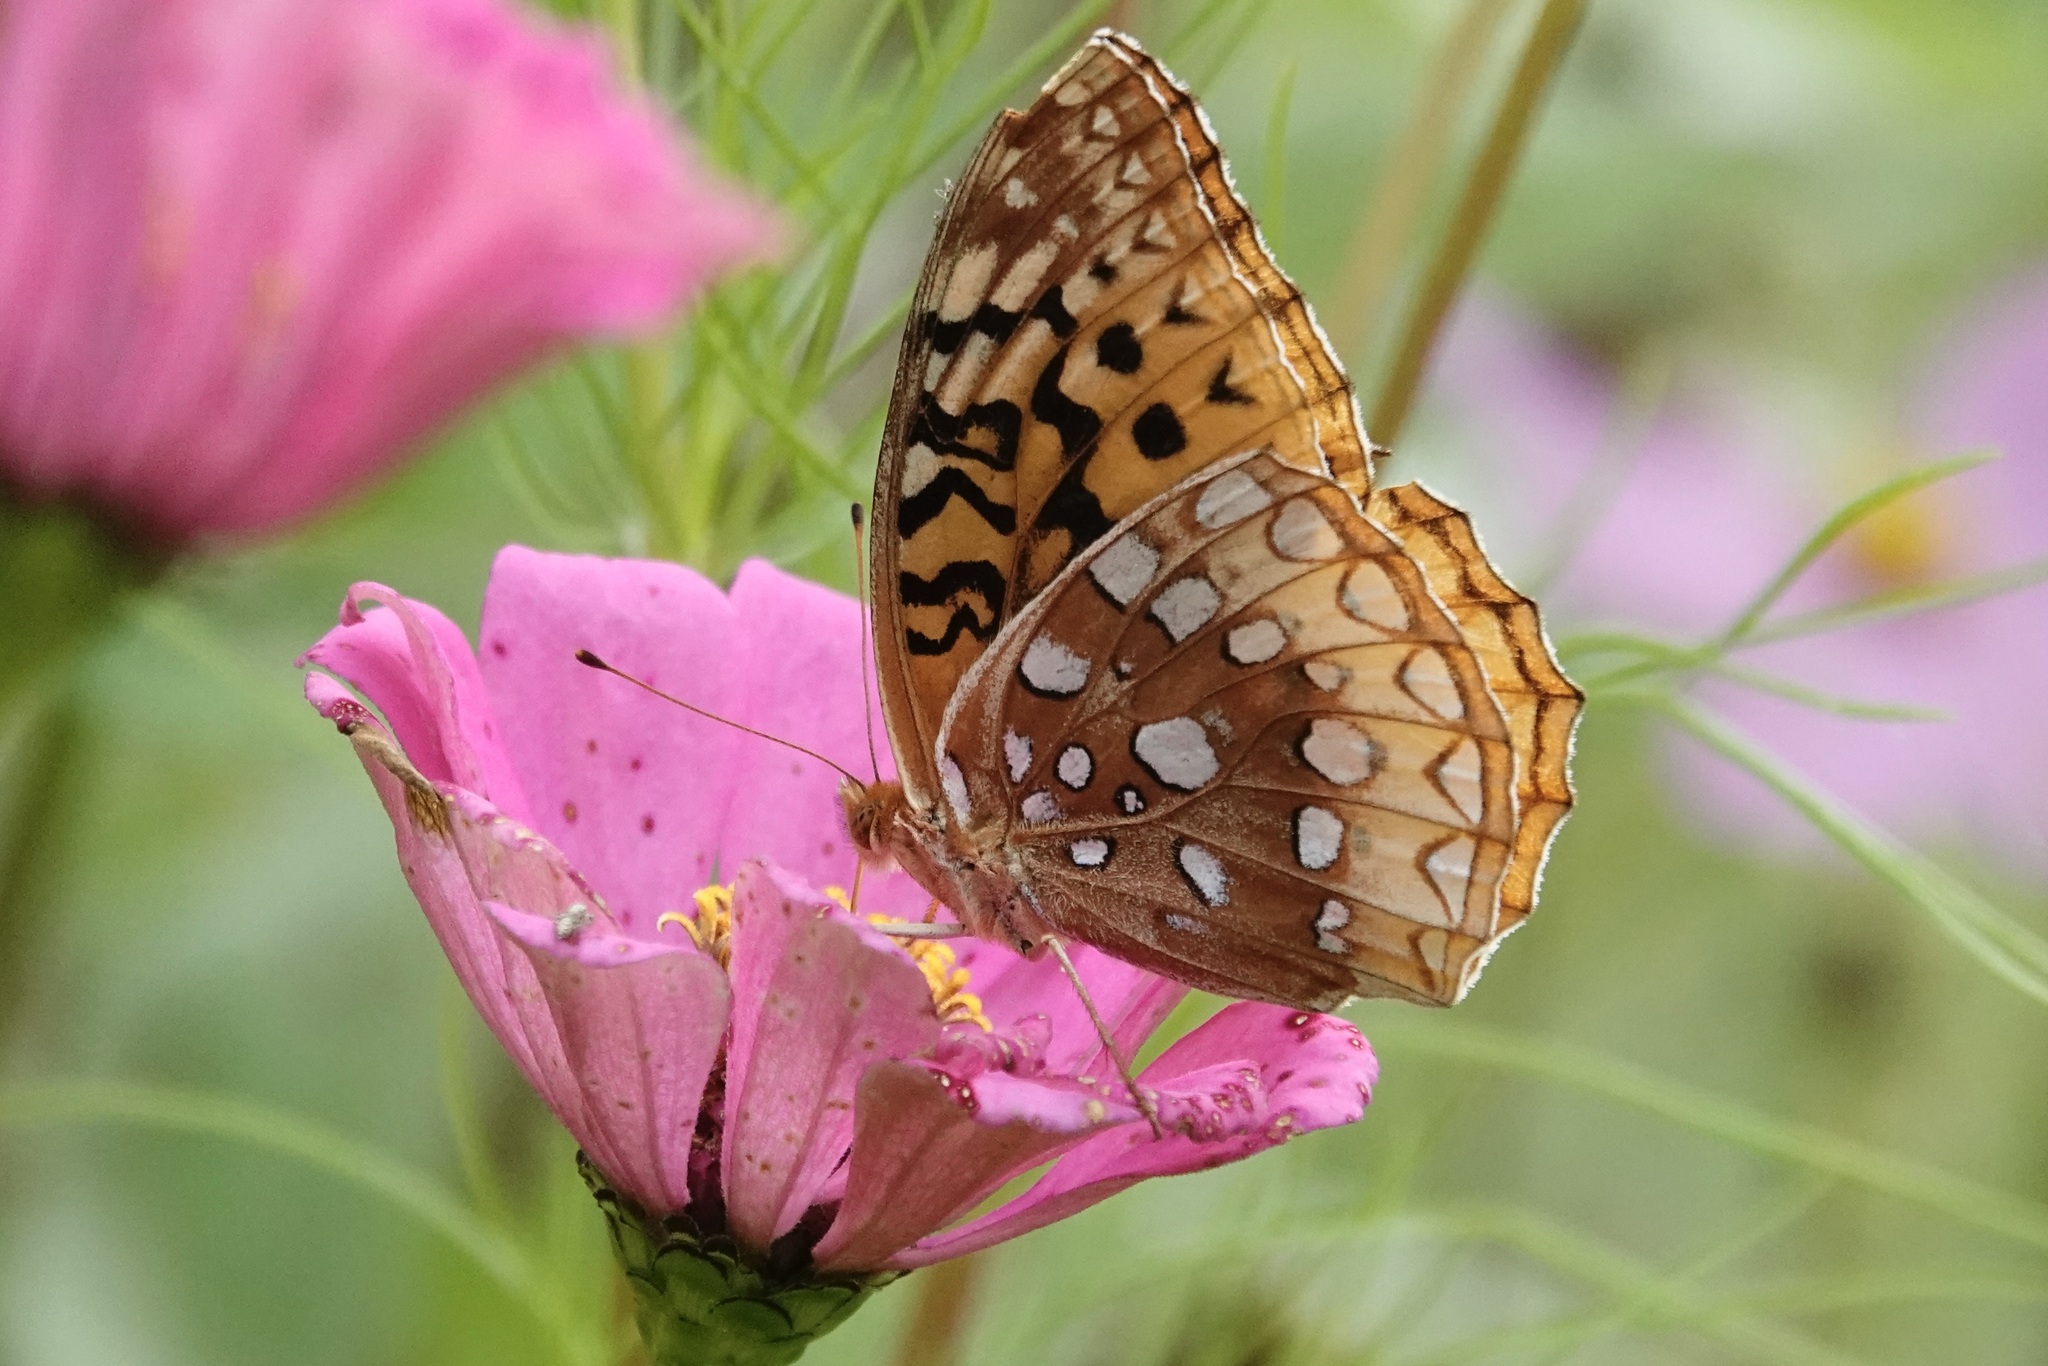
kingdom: Animalia
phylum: Arthropoda
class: Insecta
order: Lepidoptera
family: Nymphalidae
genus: Speyeria
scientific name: Speyeria cybele
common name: Great spangled fritillary
